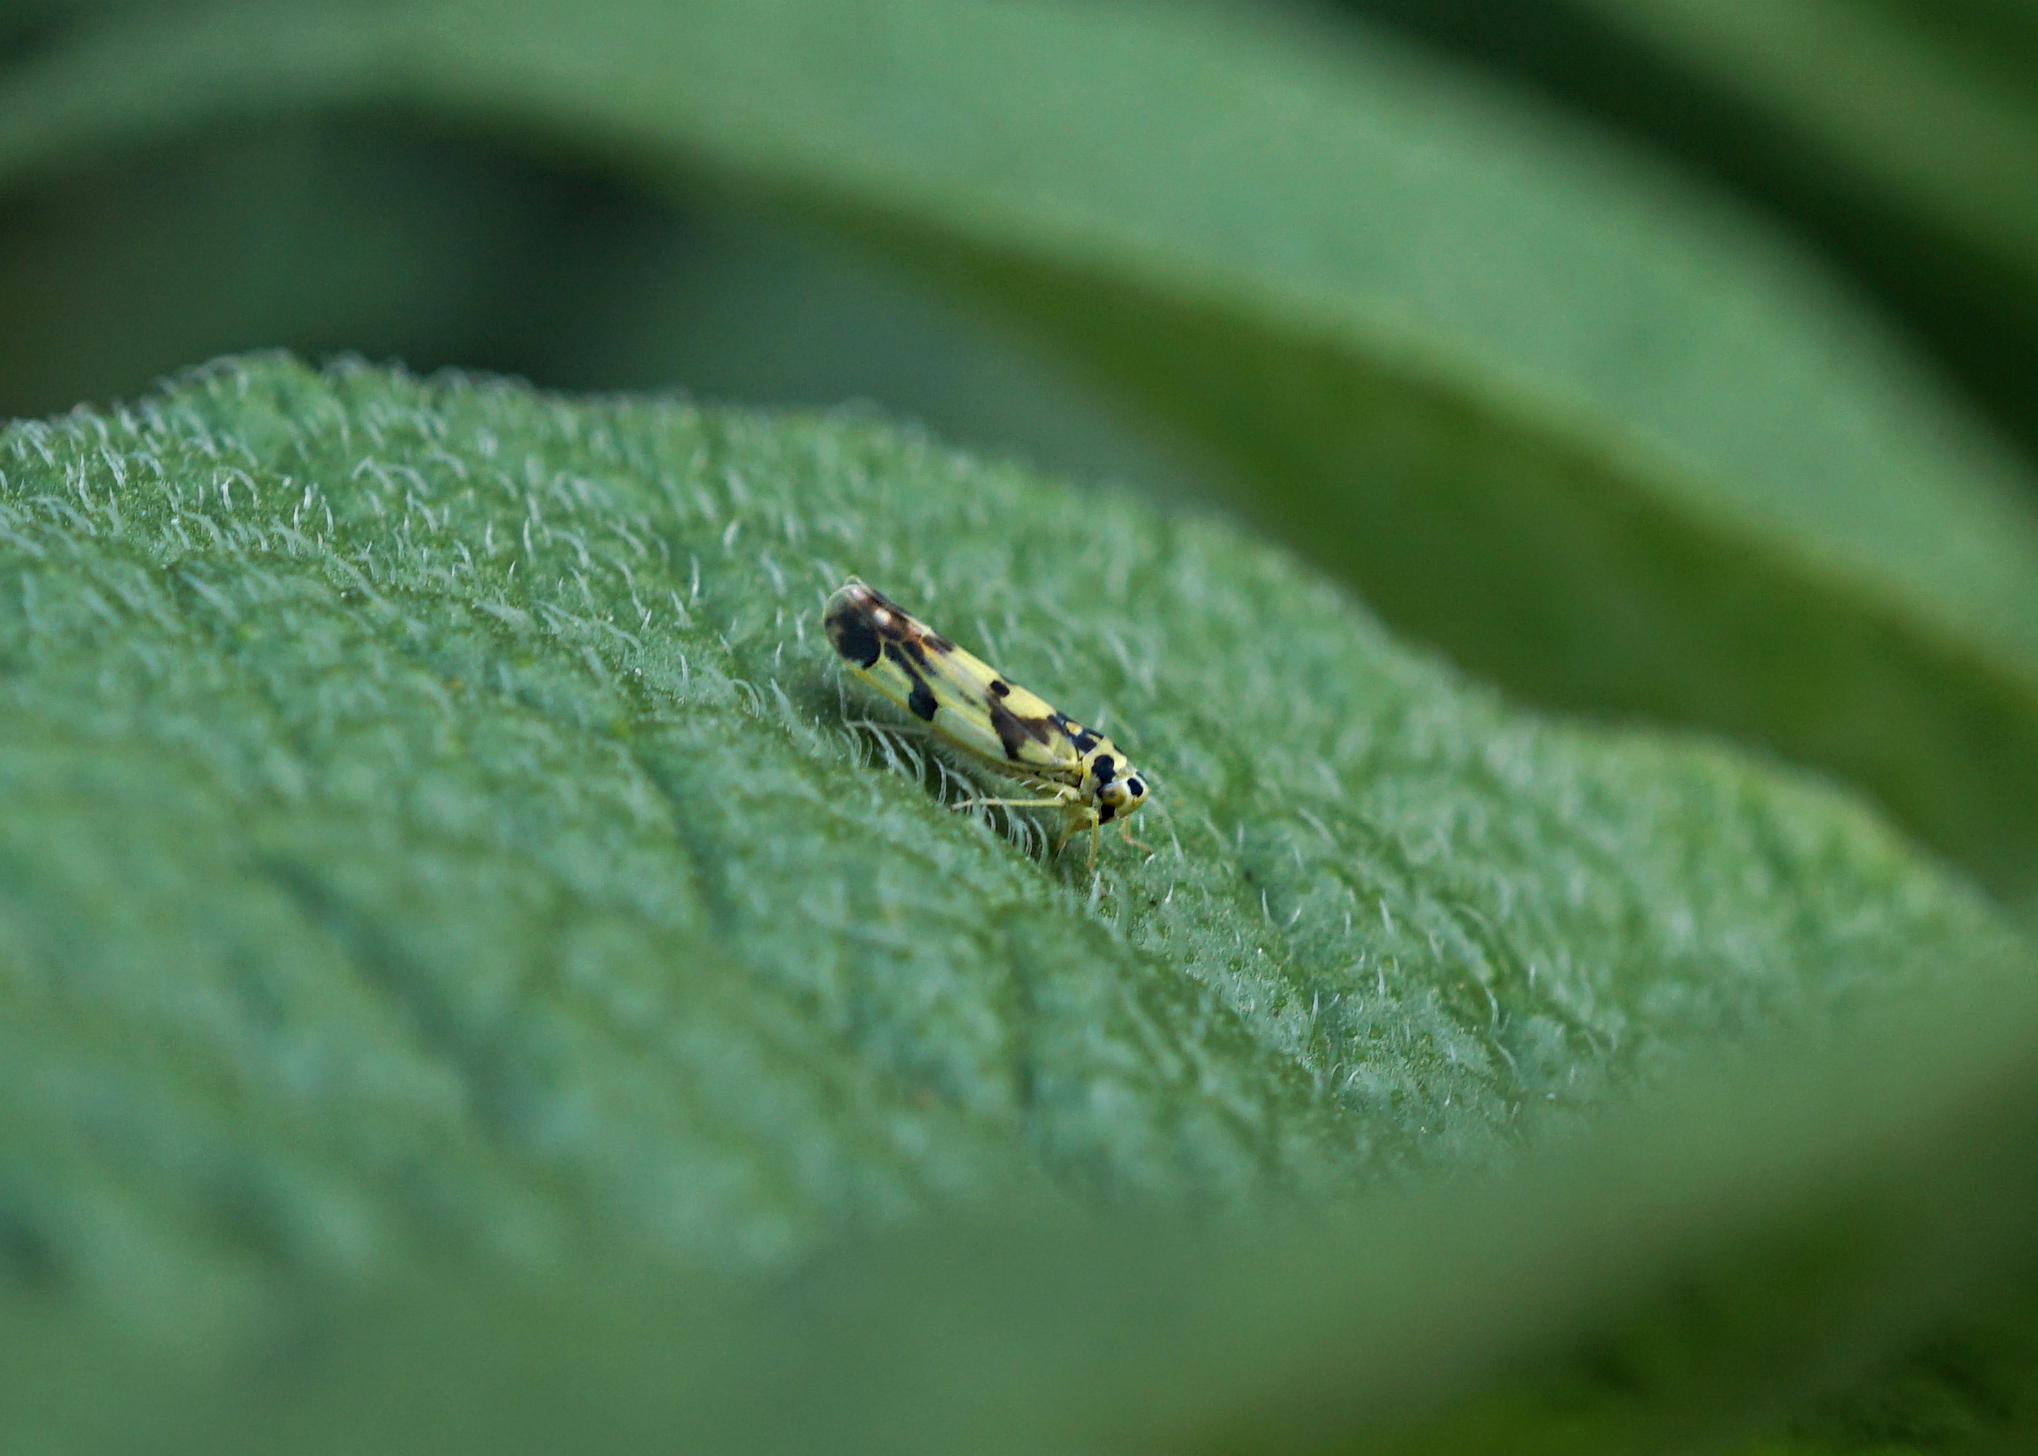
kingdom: Animalia
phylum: Arthropoda
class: Insecta
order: Hemiptera
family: Cicadellidae
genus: Eupteryx
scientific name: Eupteryx aurata
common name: Leafhopper
